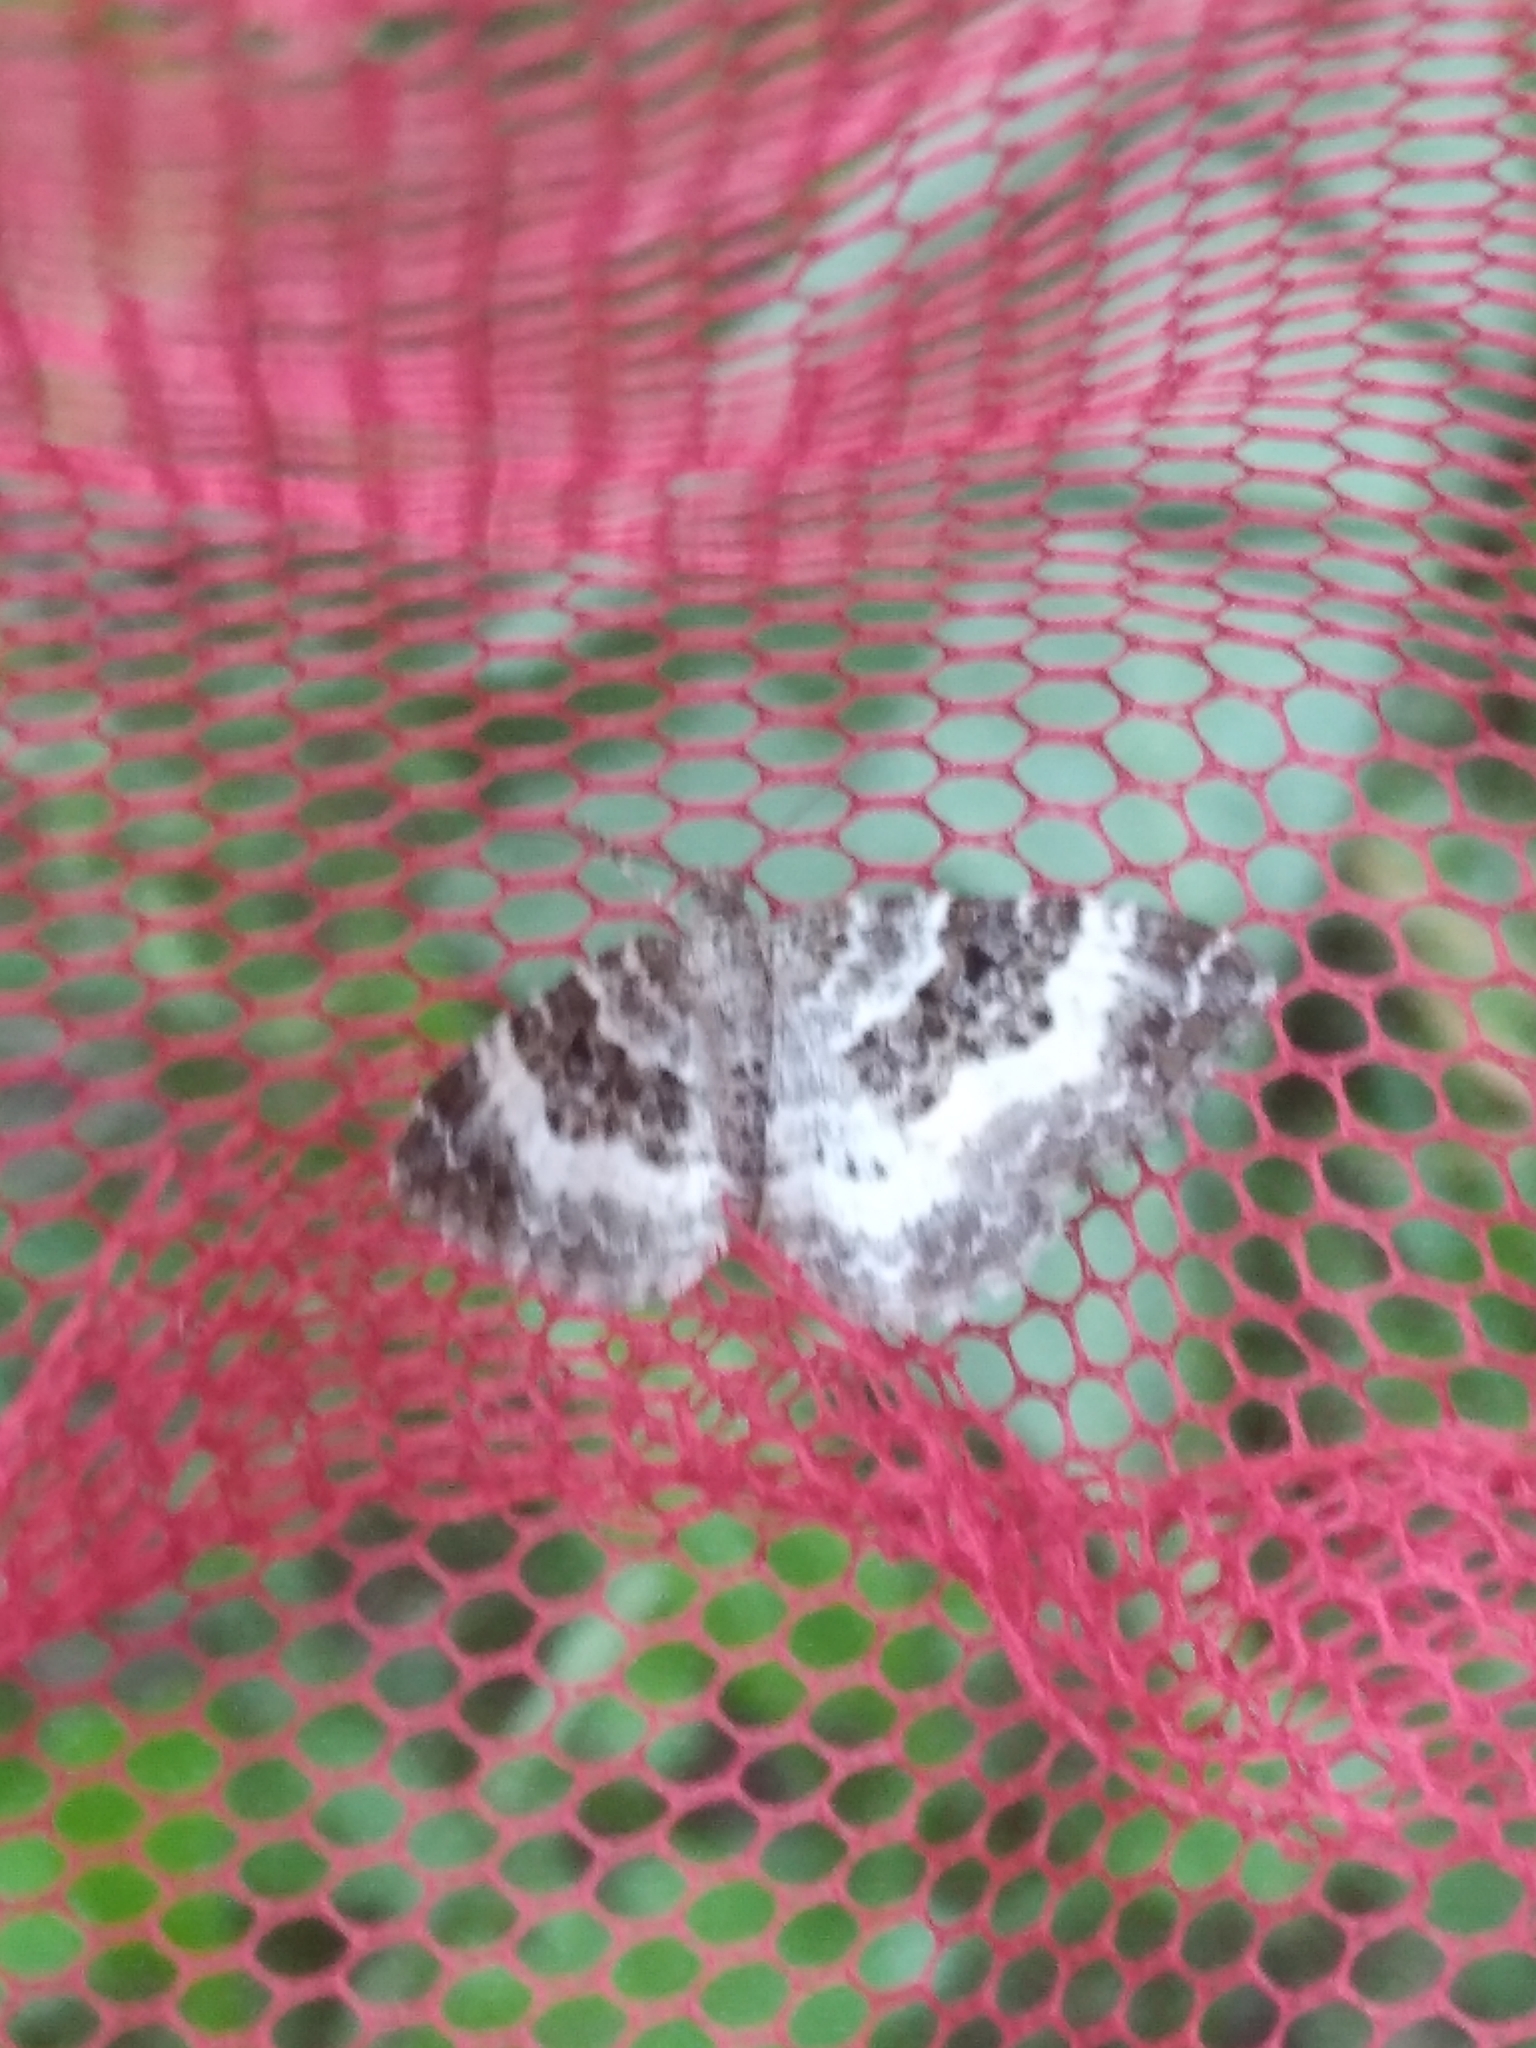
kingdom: Animalia
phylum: Arthropoda
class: Insecta
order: Lepidoptera
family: Geometridae
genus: Epirrhoe
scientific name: Epirrhoe alternata
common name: Common carpet
